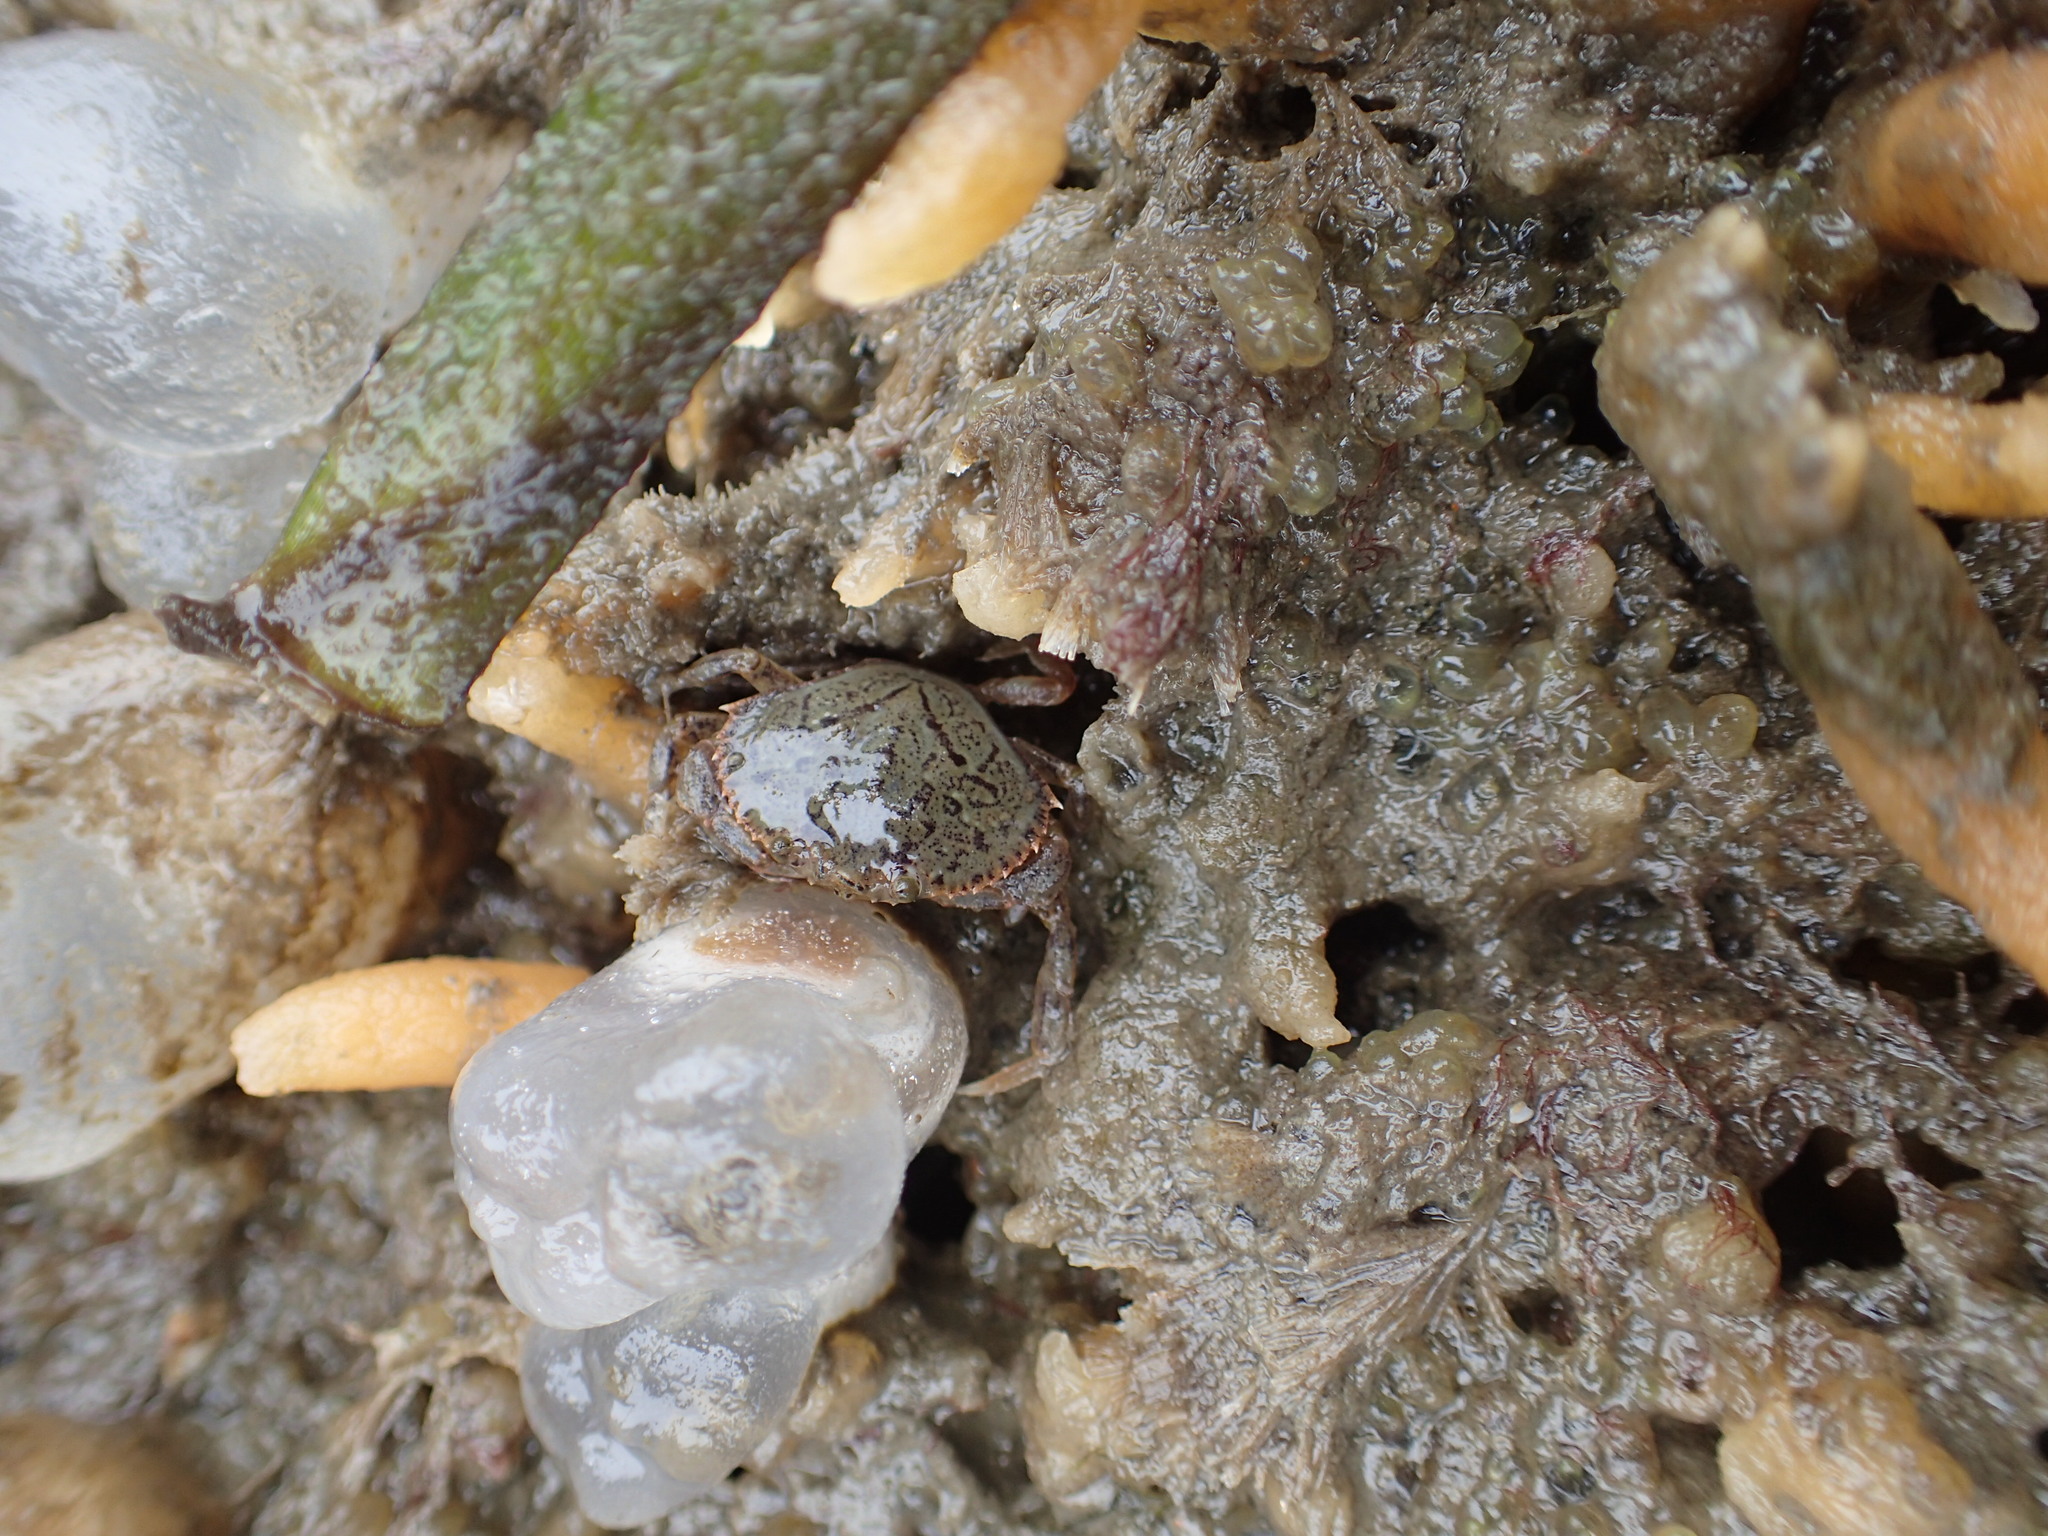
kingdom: Animalia
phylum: Arthropoda
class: Malacostraca
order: Decapoda
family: Cancridae
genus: Metacarcinus
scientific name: Metacarcinus magister
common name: Californian crab
